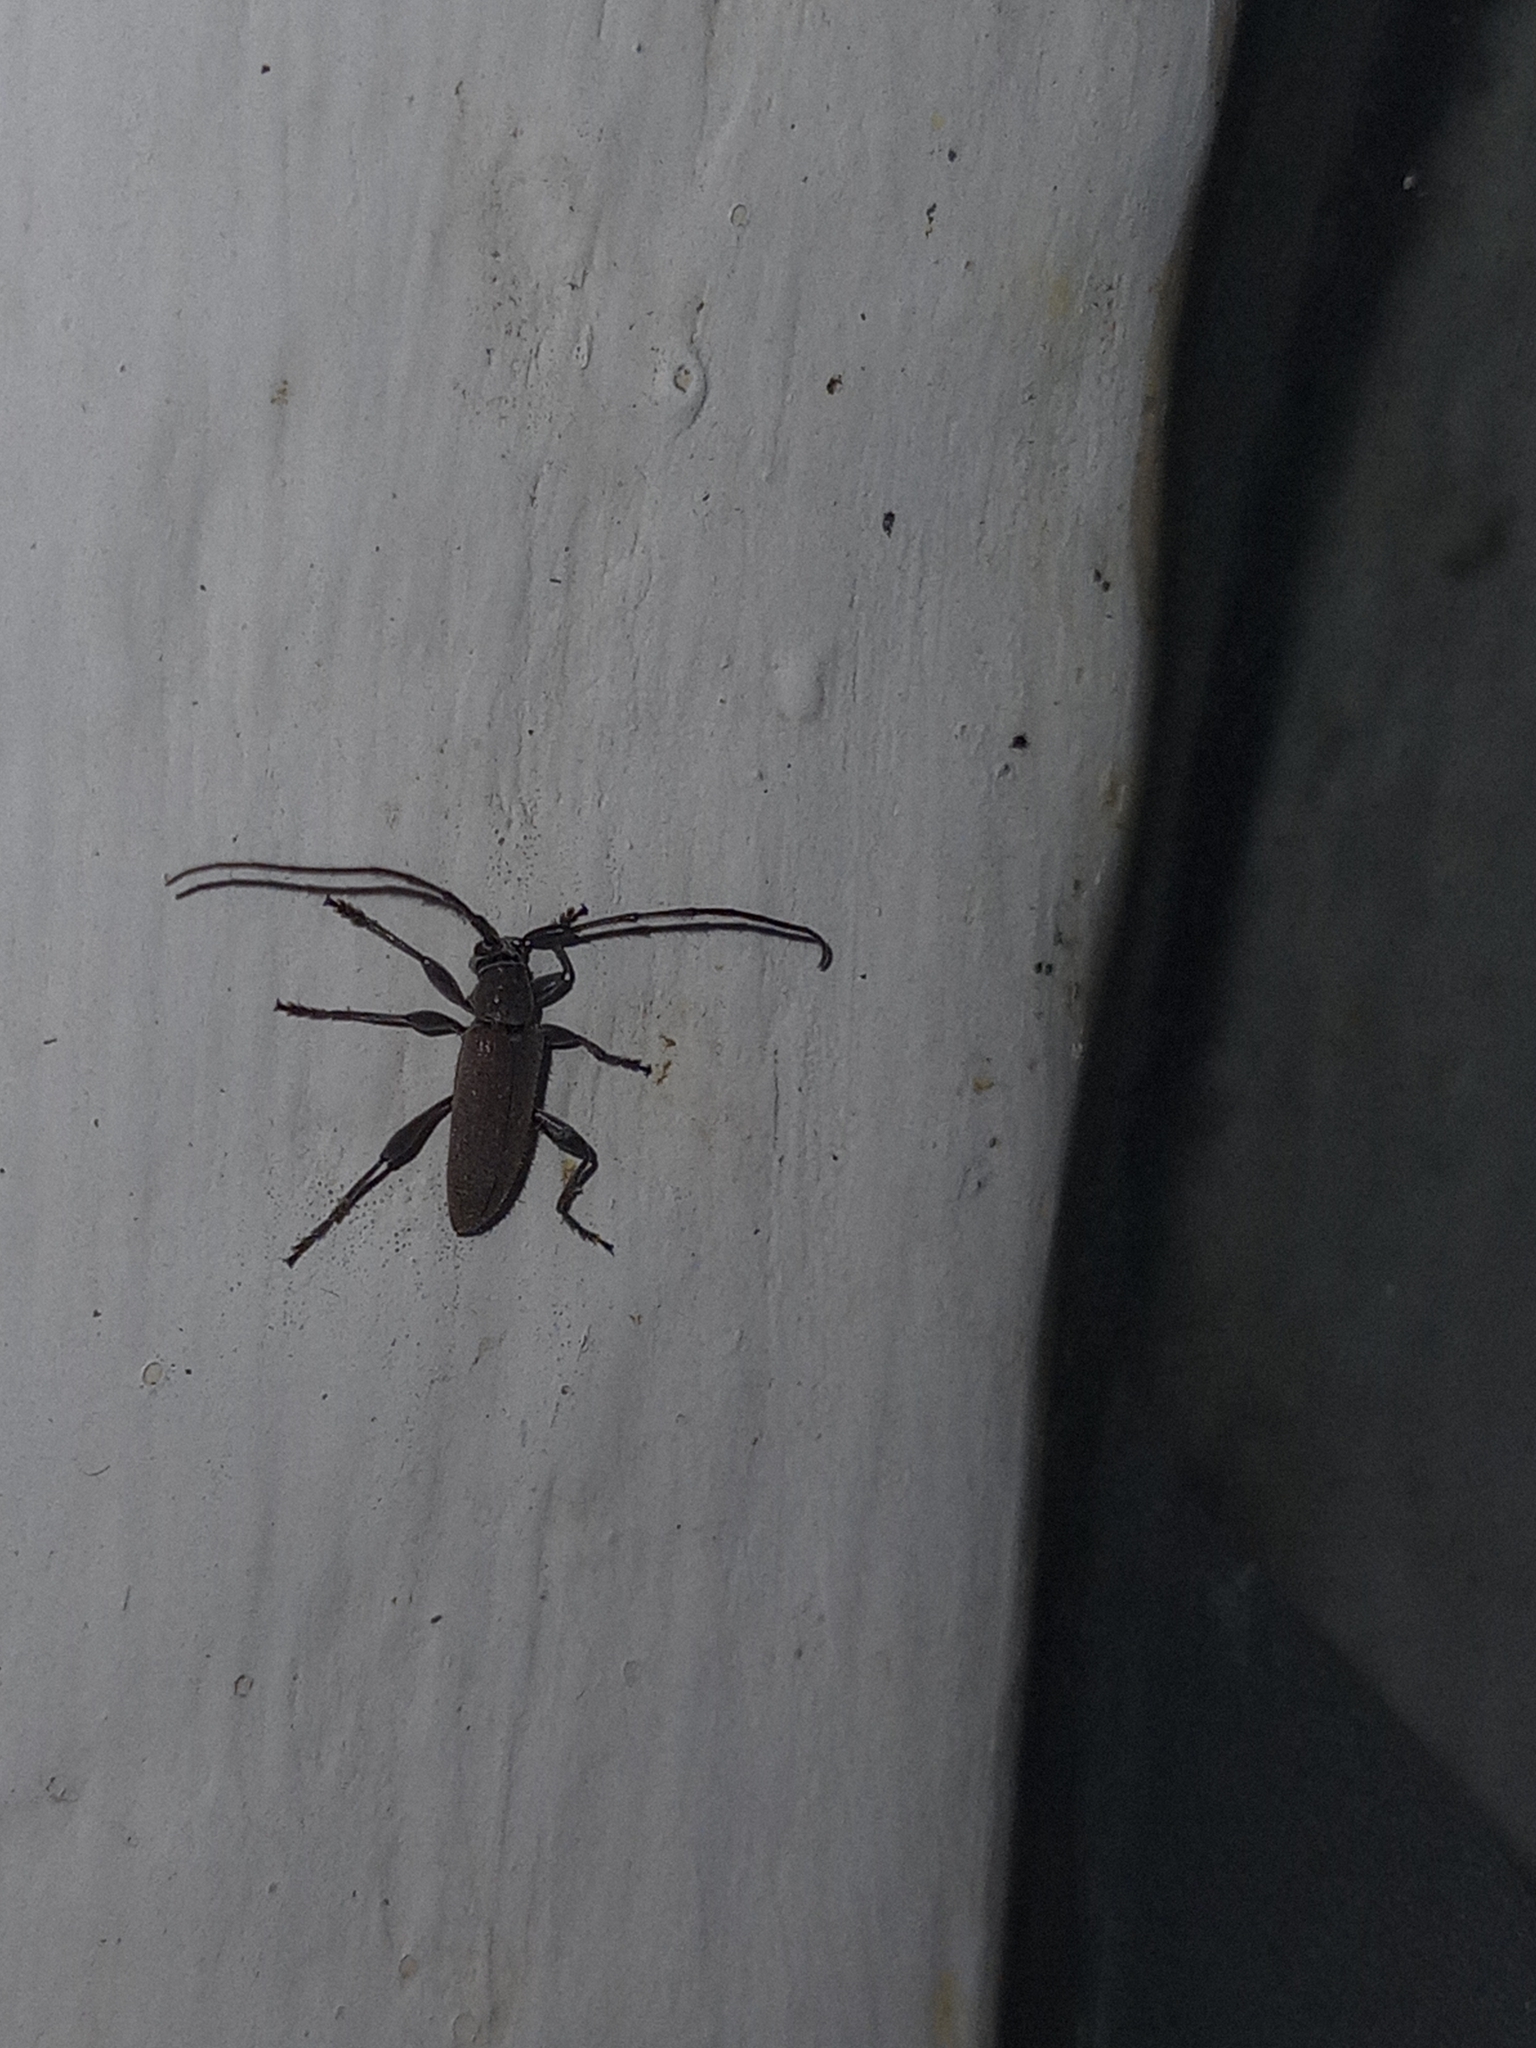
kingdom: Animalia
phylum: Arthropoda
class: Insecta
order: Coleoptera
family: Cerambycidae
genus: Cymatonycha
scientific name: Cymatonycha castanea
